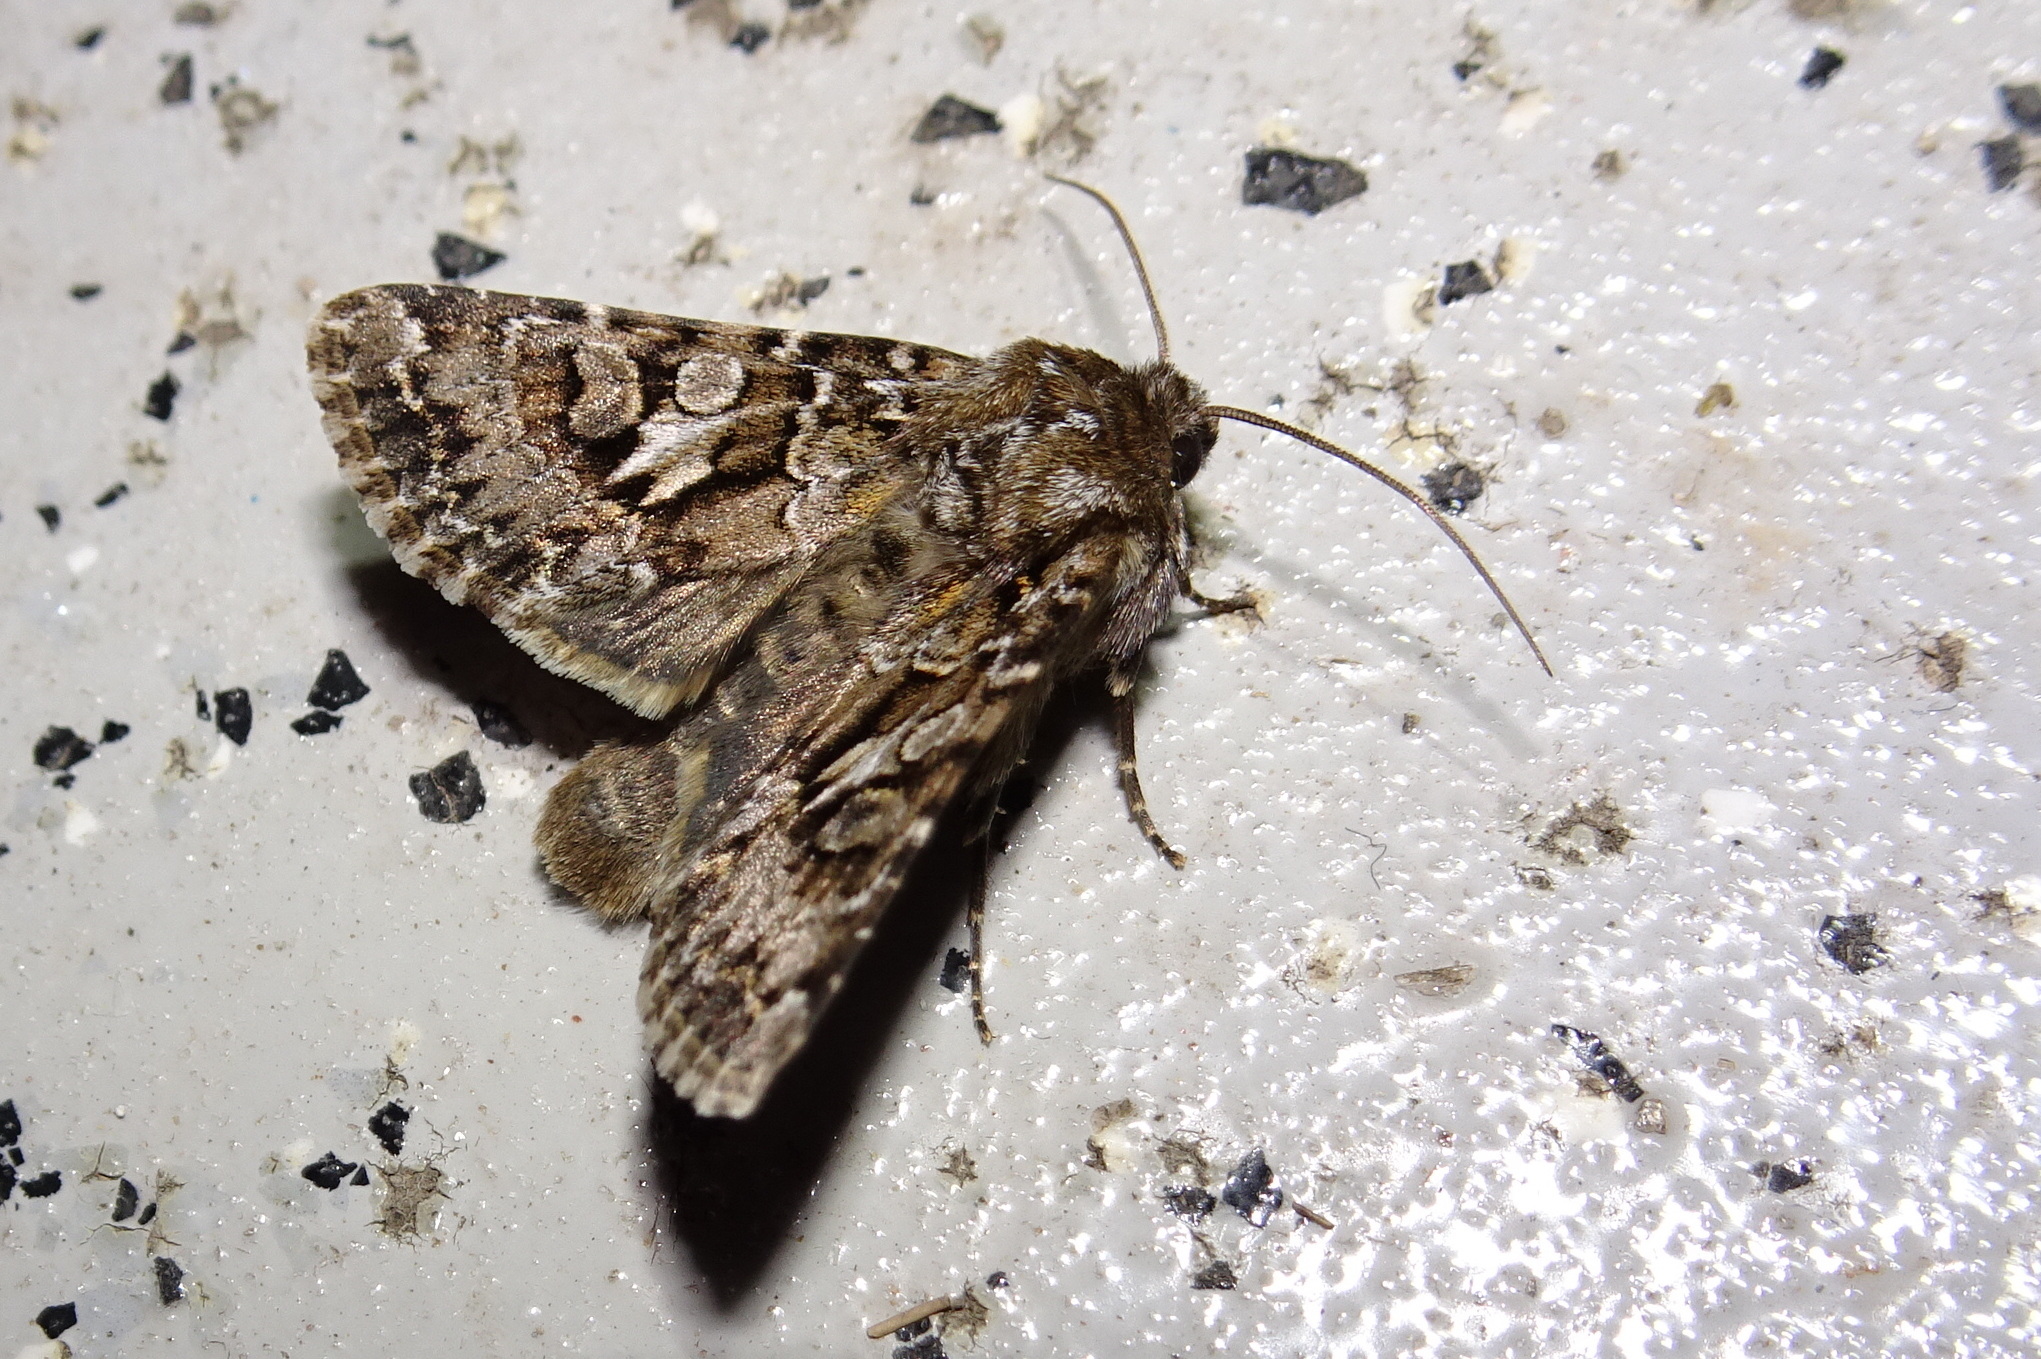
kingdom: Animalia
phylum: Arthropoda
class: Insecta
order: Lepidoptera
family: Noctuidae
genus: Hada
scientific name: Hada plebeja
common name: Shears
